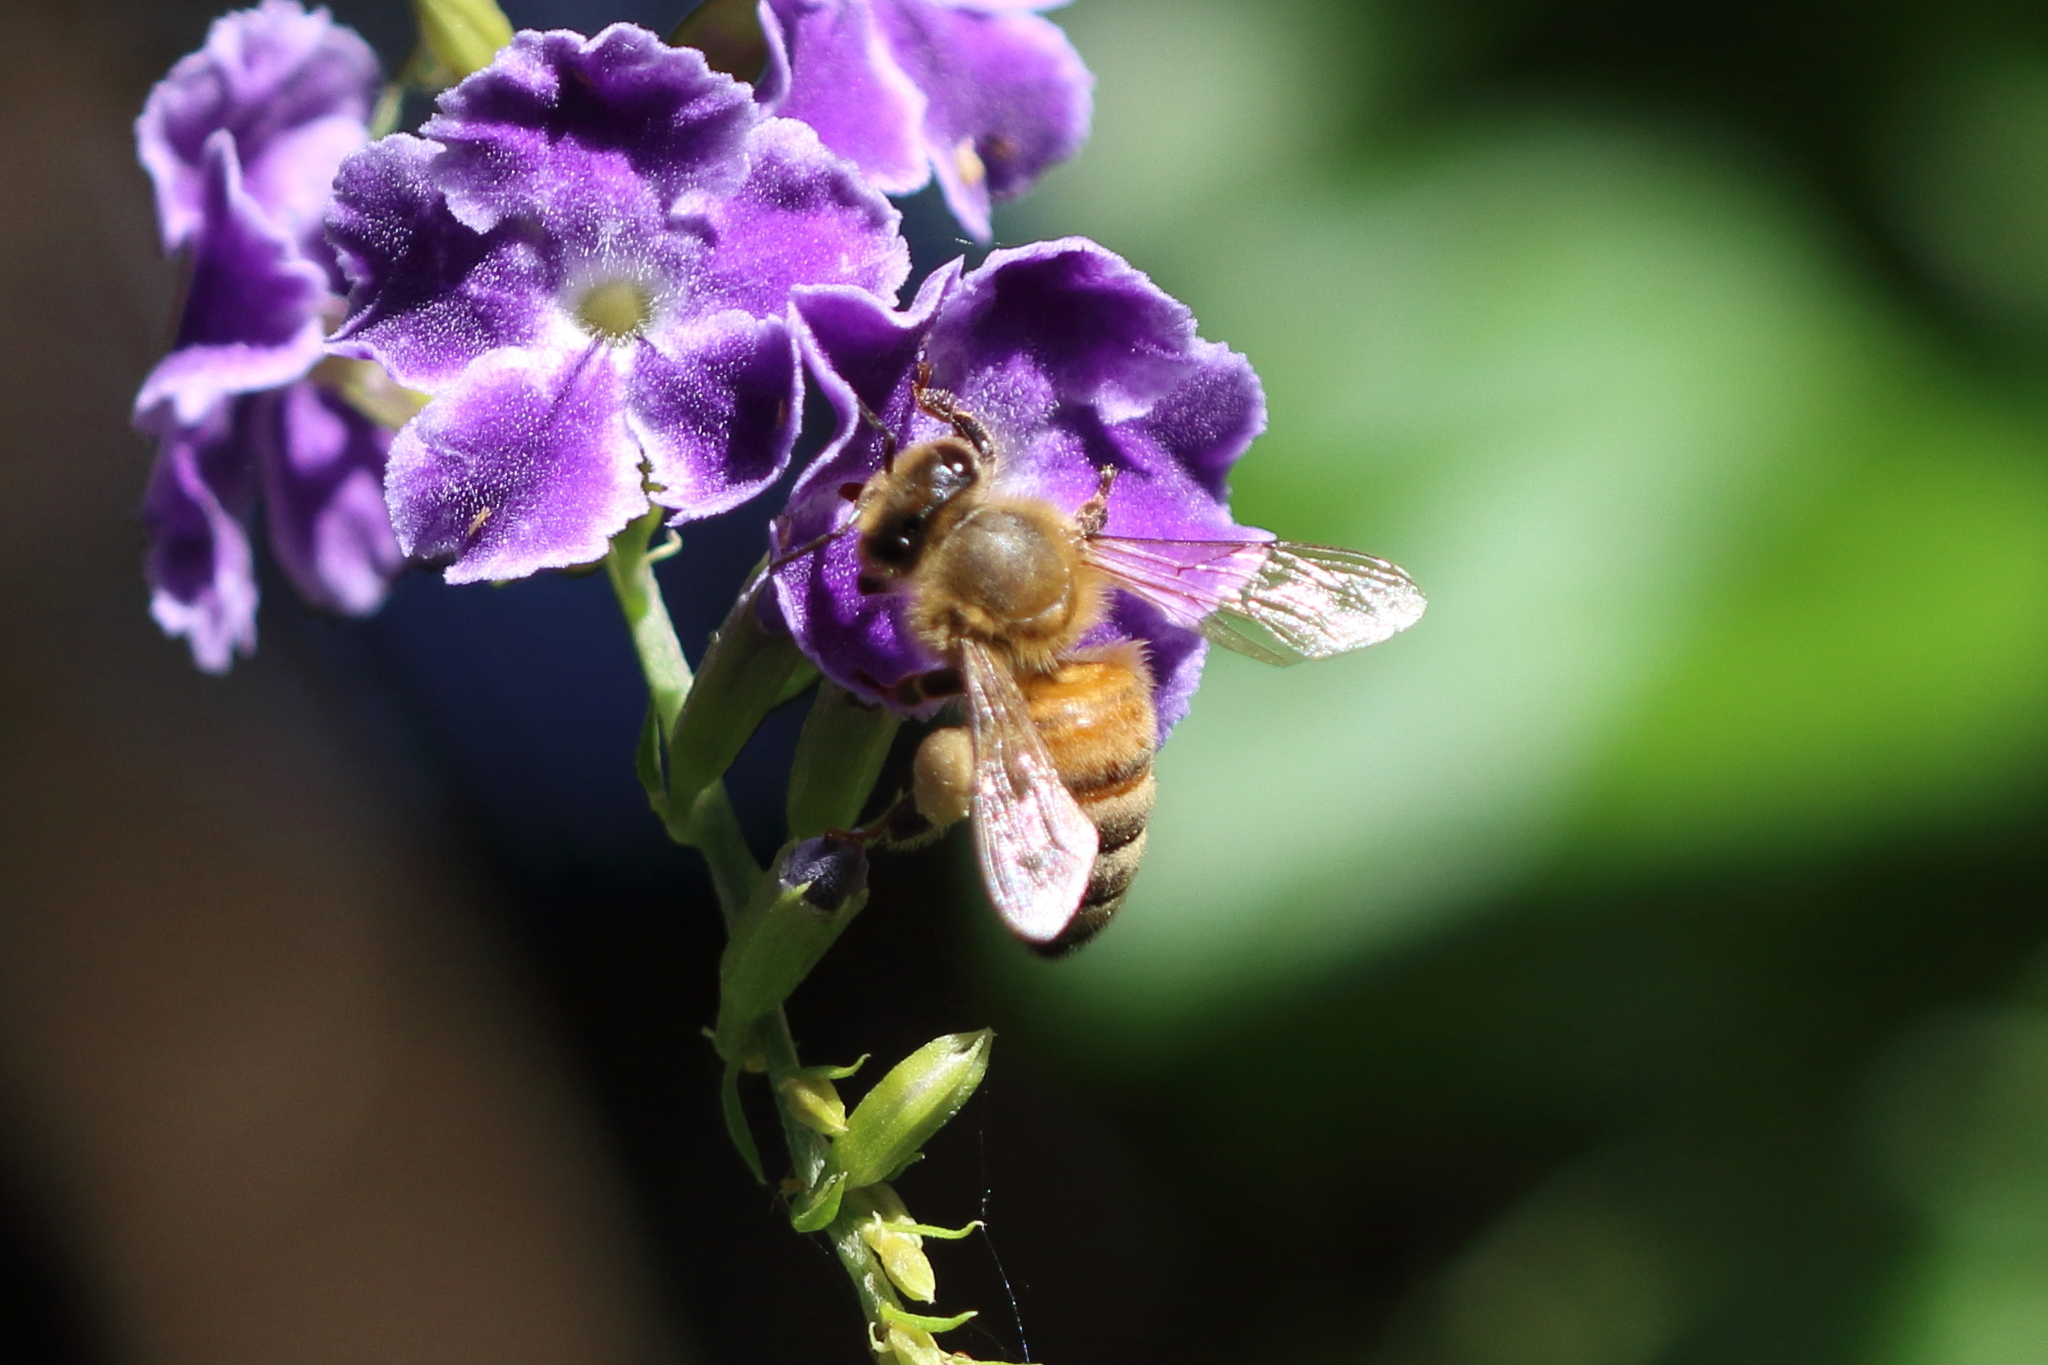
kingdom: Animalia
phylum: Arthropoda
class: Insecta
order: Hymenoptera
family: Apidae
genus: Apis
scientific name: Apis mellifera
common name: Honey bee
